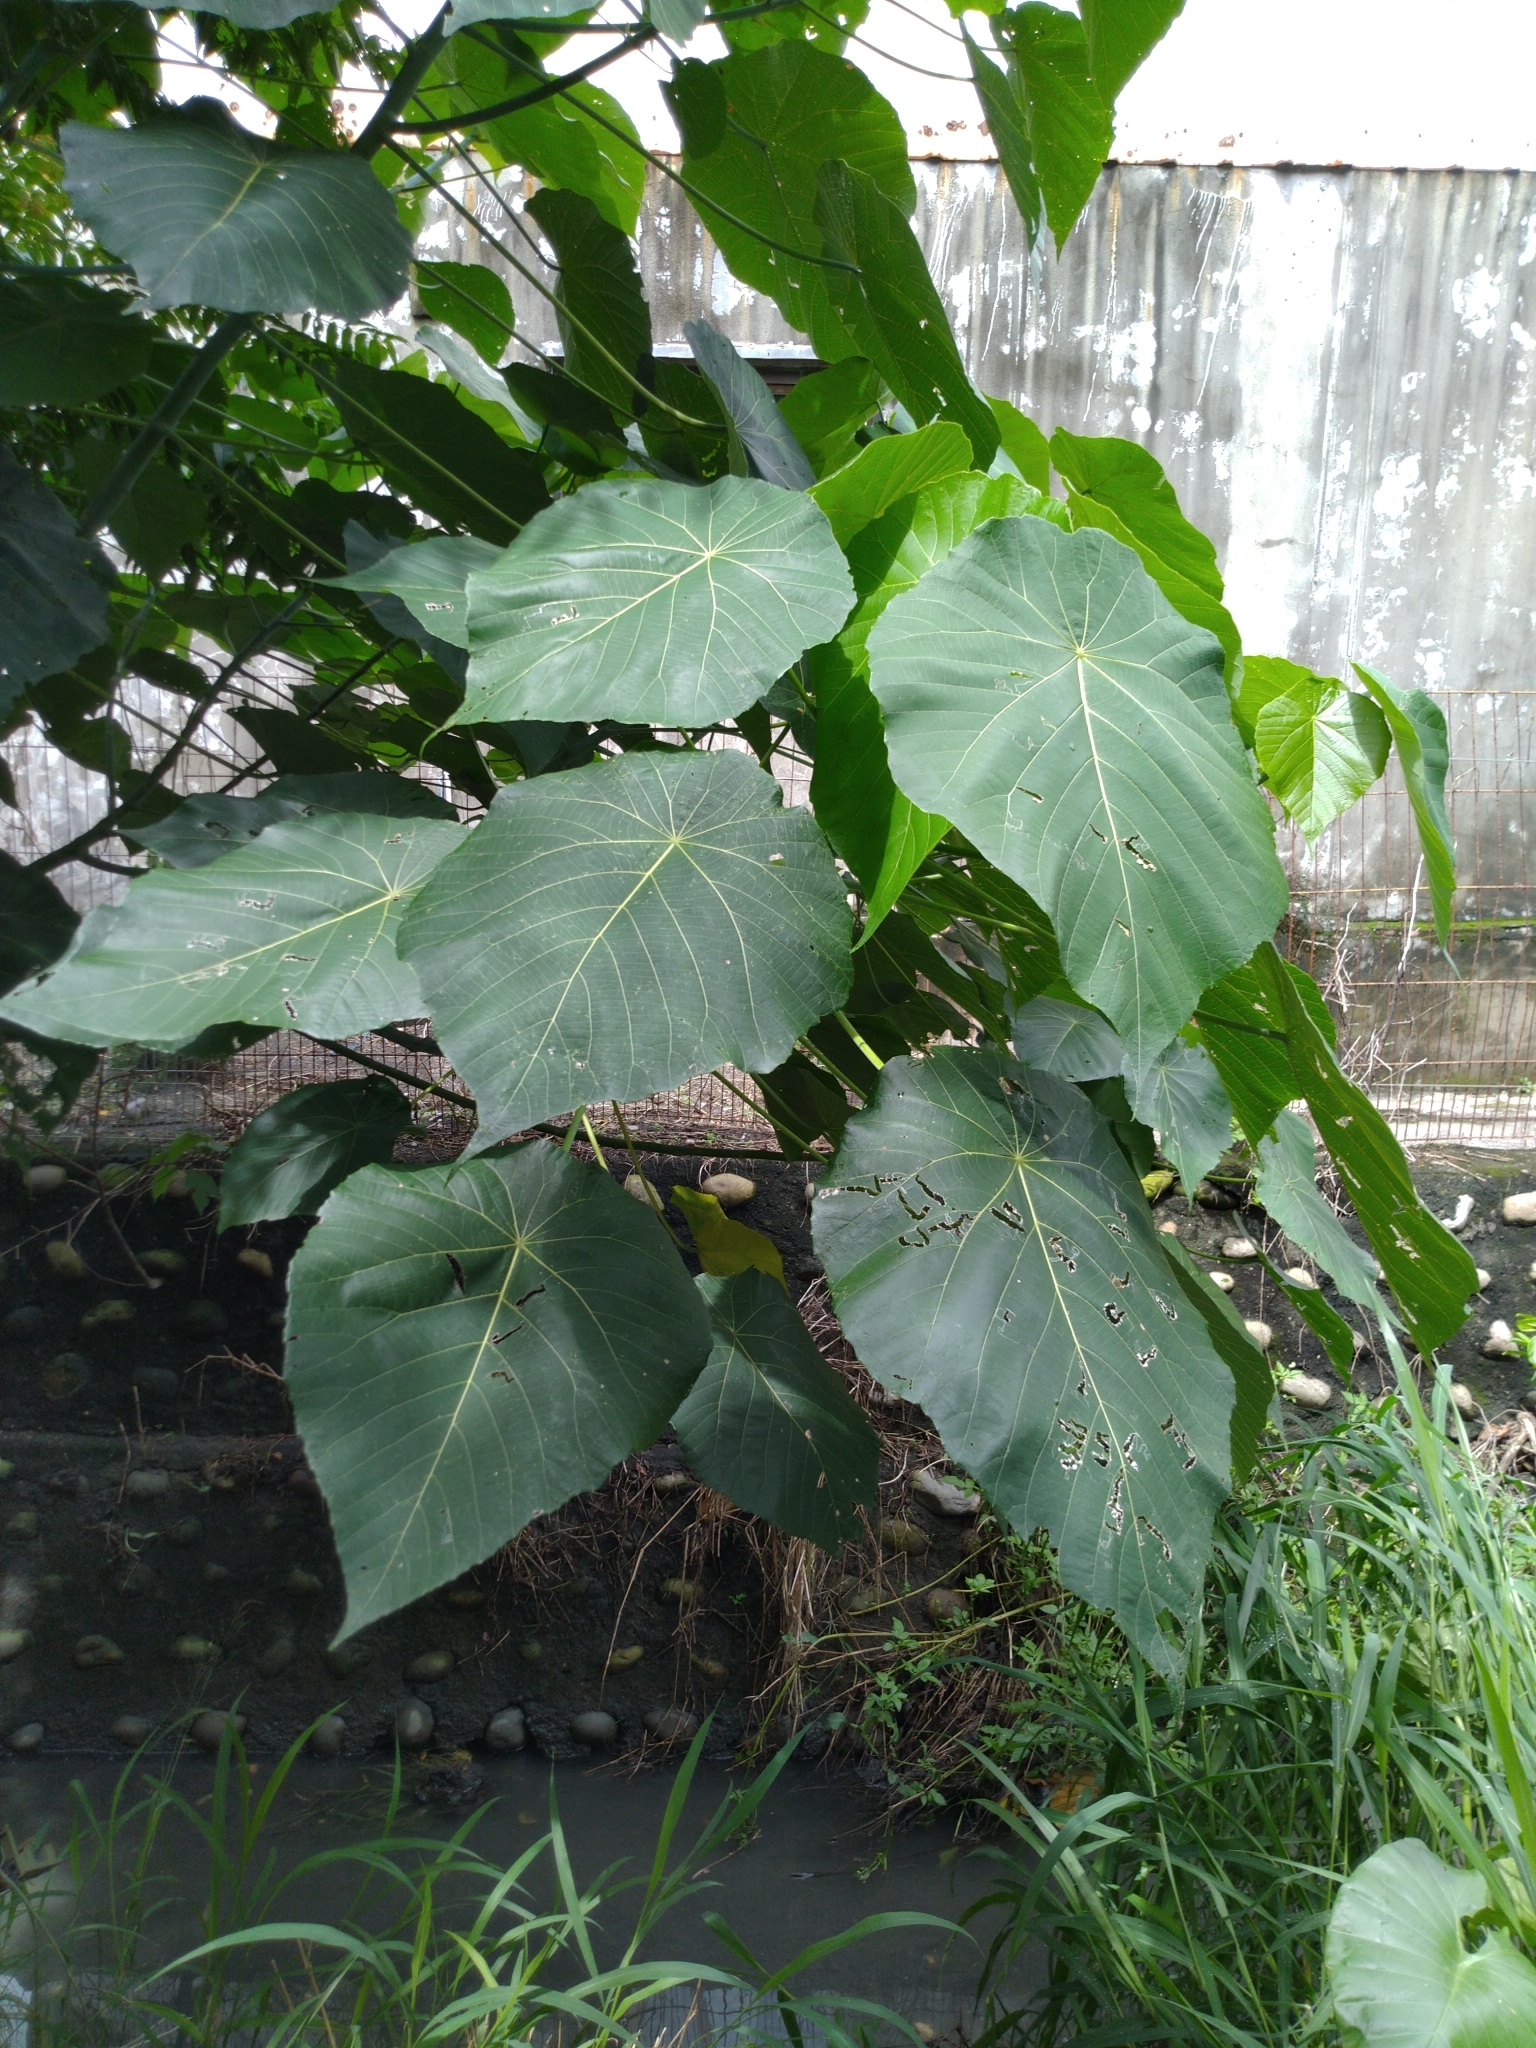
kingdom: Plantae
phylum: Tracheophyta
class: Magnoliopsida
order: Malpighiales
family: Euphorbiaceae
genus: Macaranga
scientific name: Macaranga tanarius
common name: Parasol leaf tree
